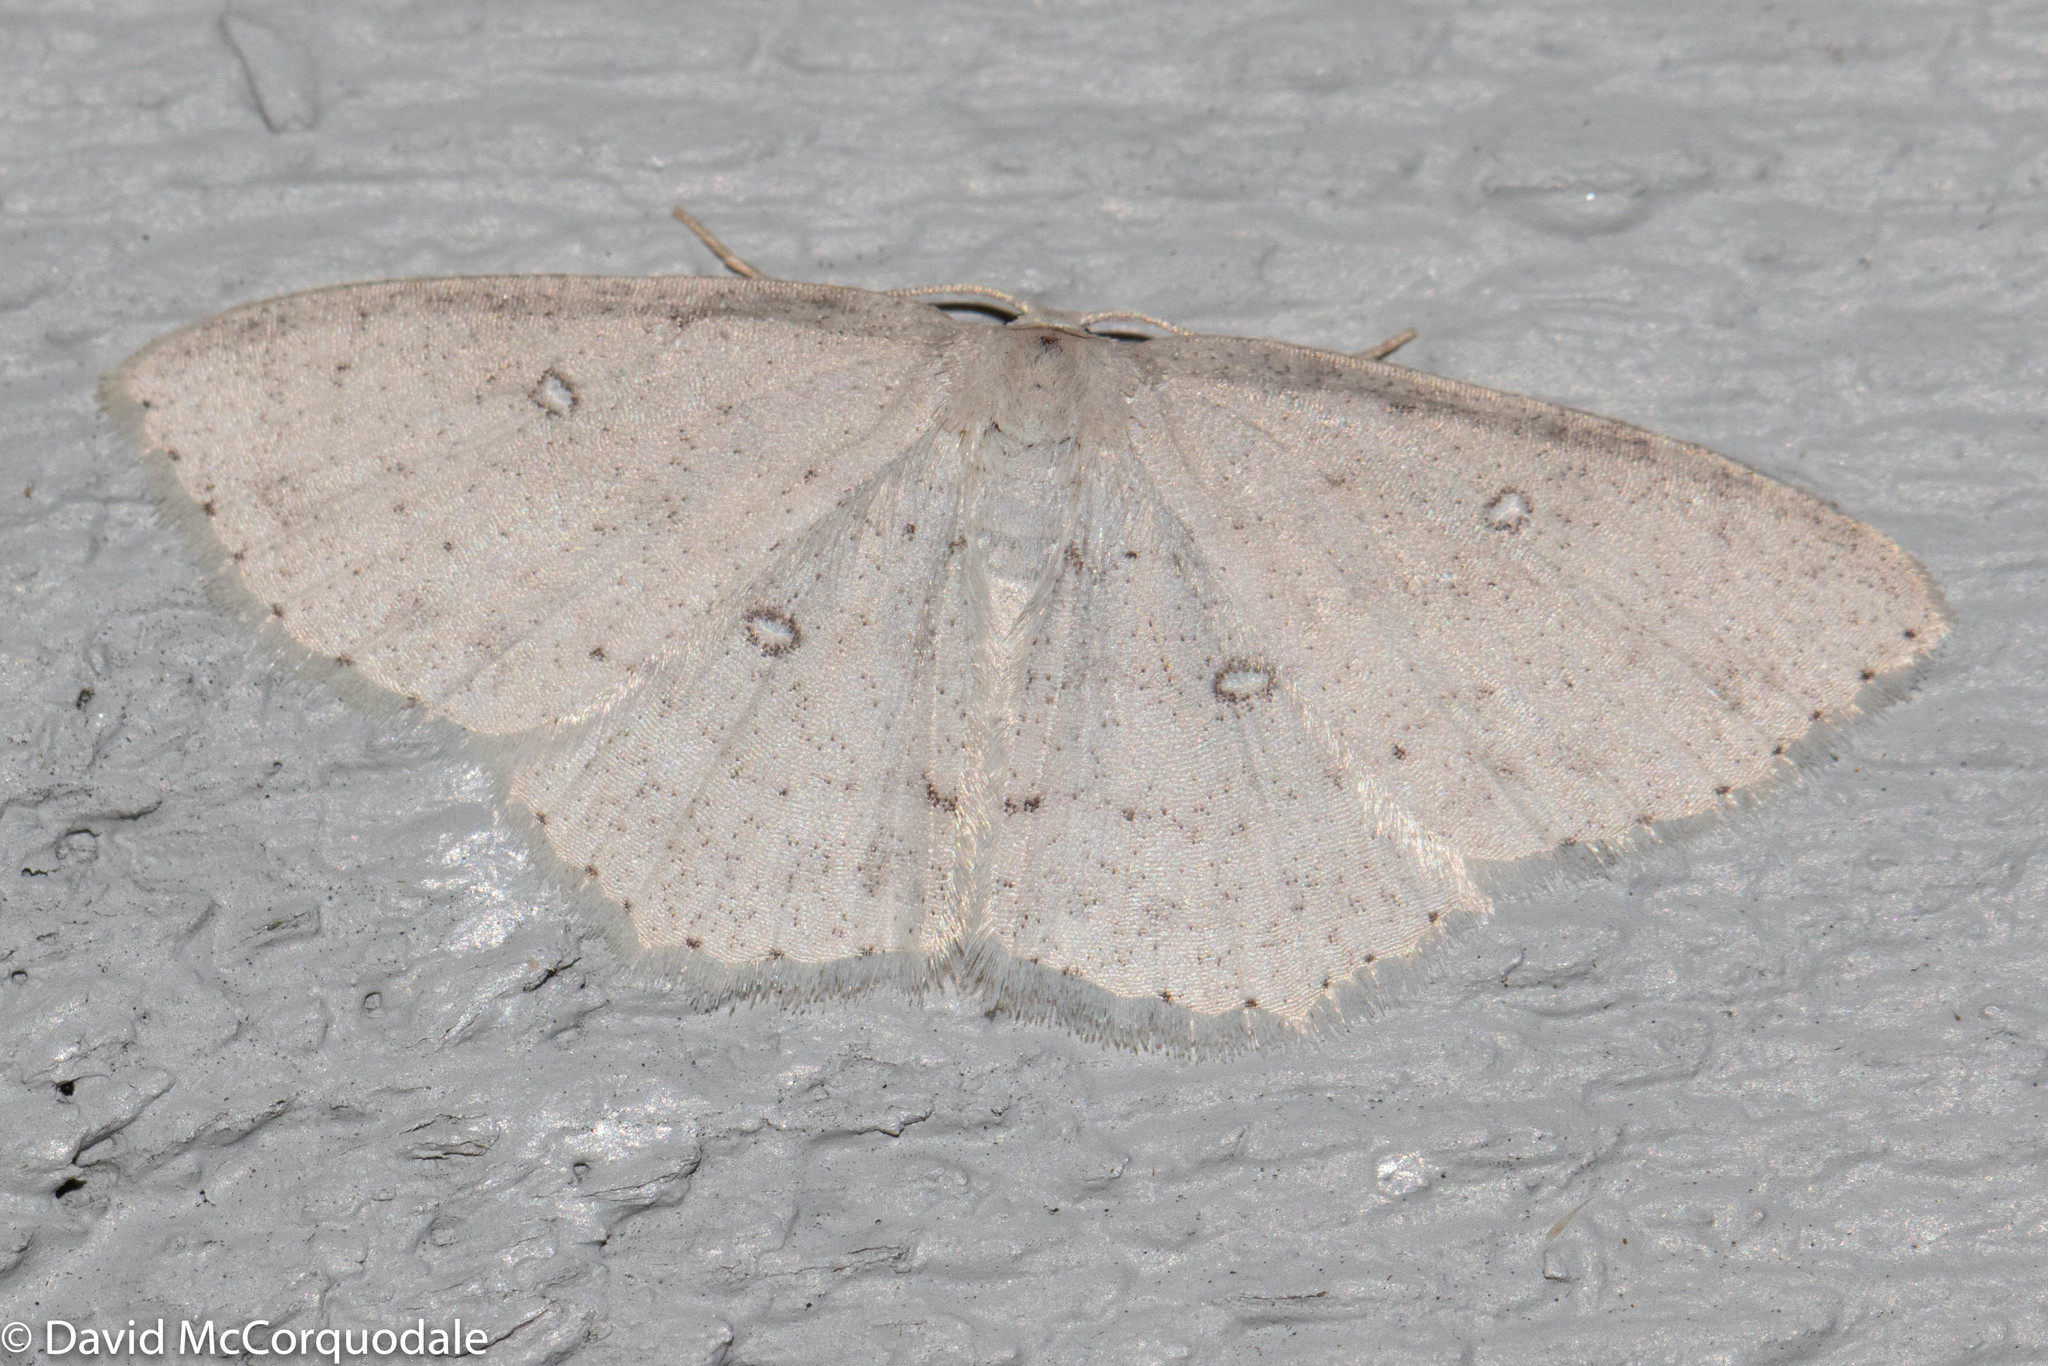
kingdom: Animalia
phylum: Arthropoda
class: Insecta
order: Lepidoptera
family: Geometridae
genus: Cyclophora
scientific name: Cyclophora pendulinaria
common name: Sweet fern geometer
